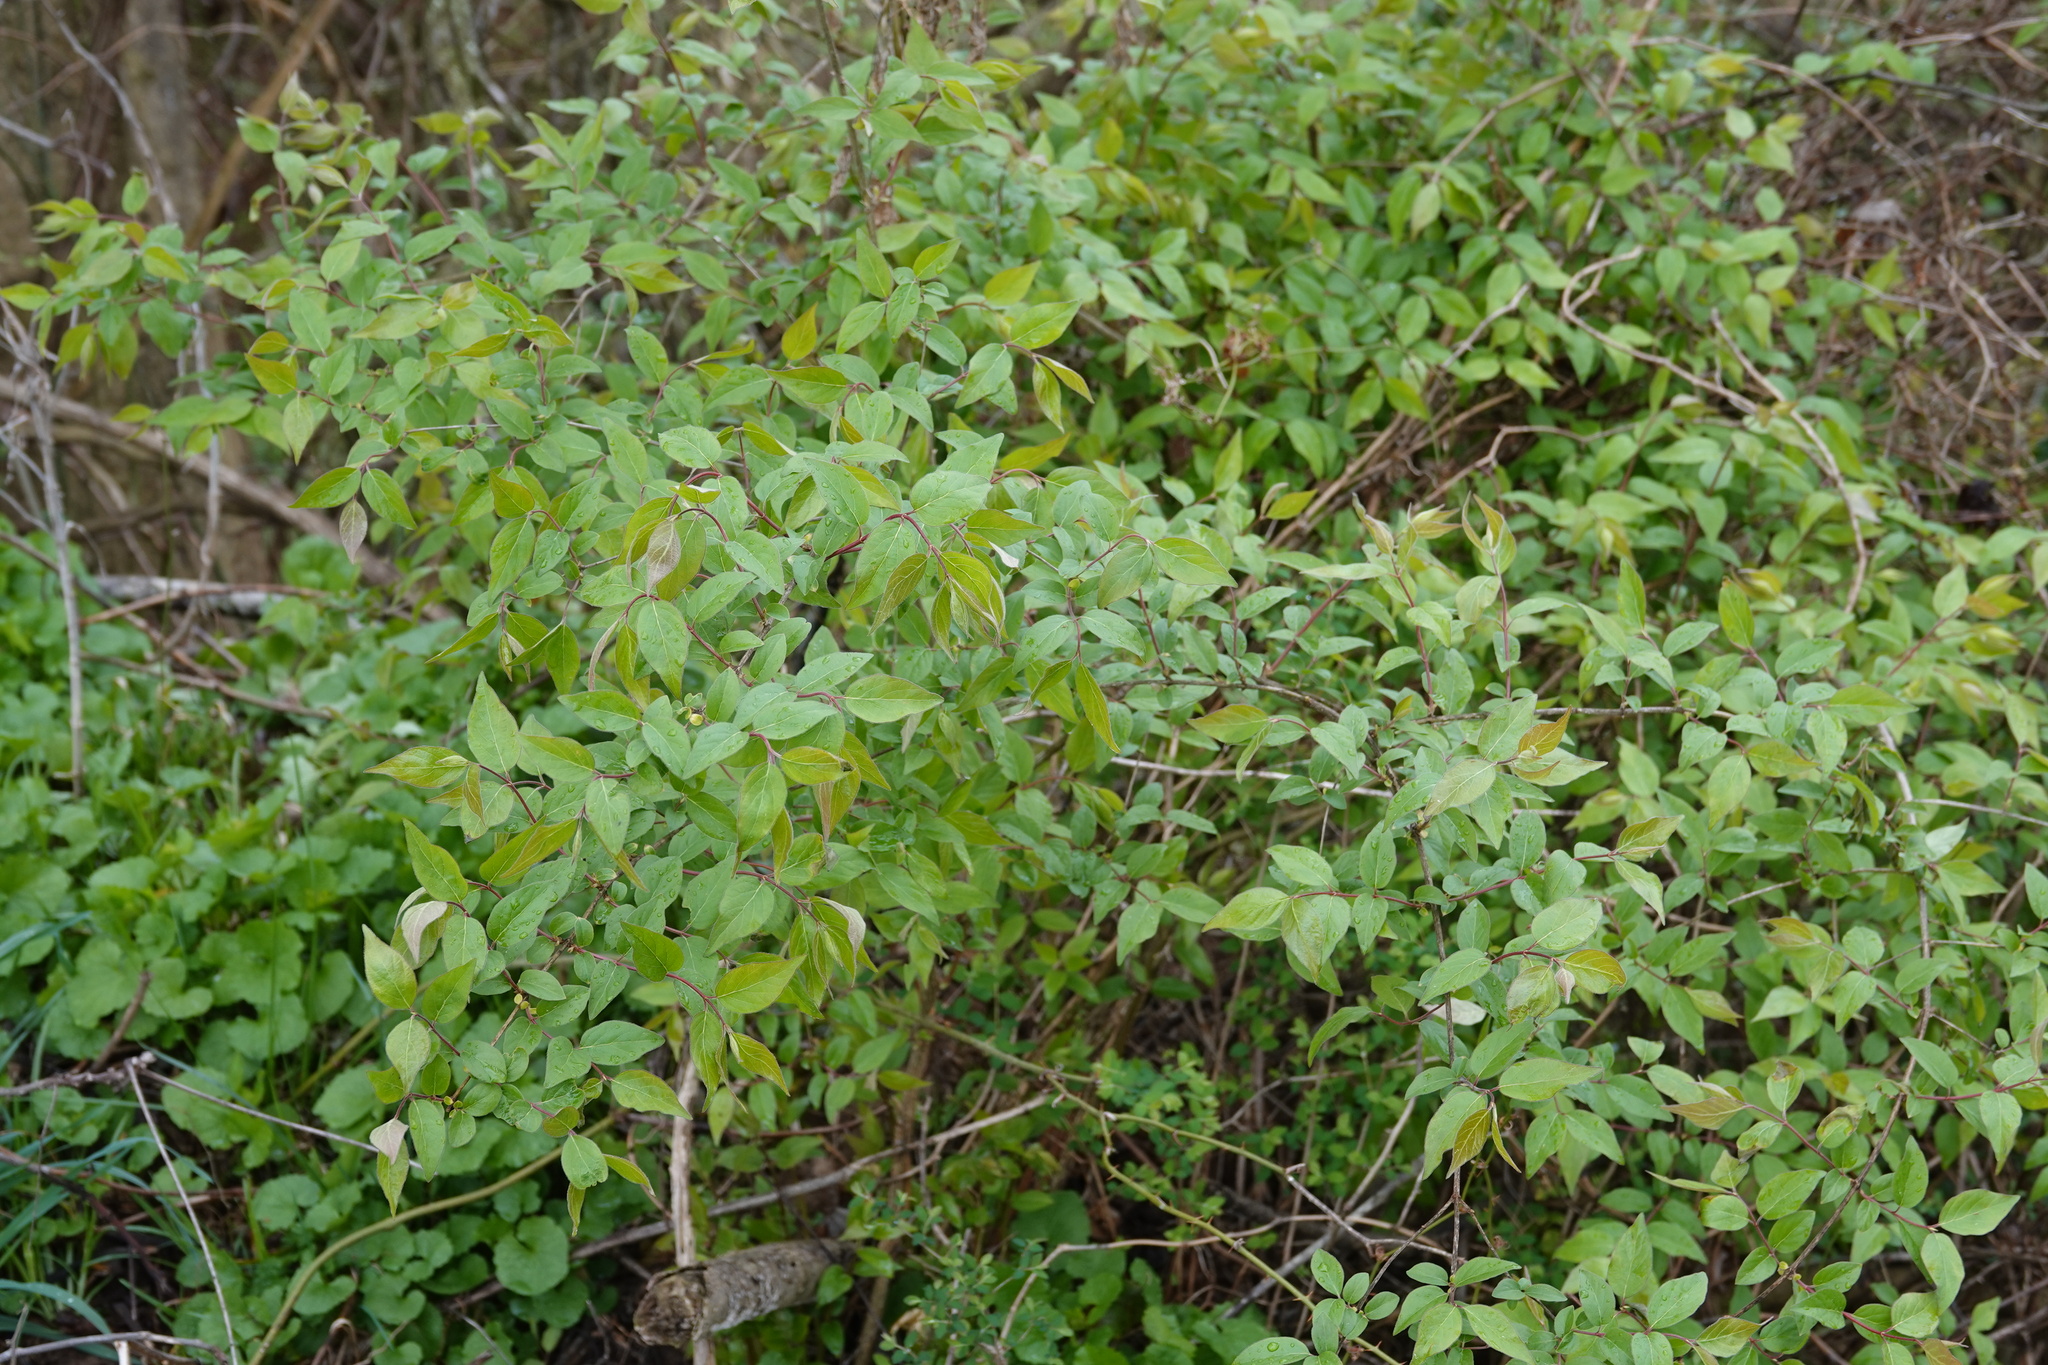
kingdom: Plantae
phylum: Tracheophyta
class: Magnoliopsida
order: Dipsacales
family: Caprifoliaceae
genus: Lonicera
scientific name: Lonicera maackii
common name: Amur honeysuckle
